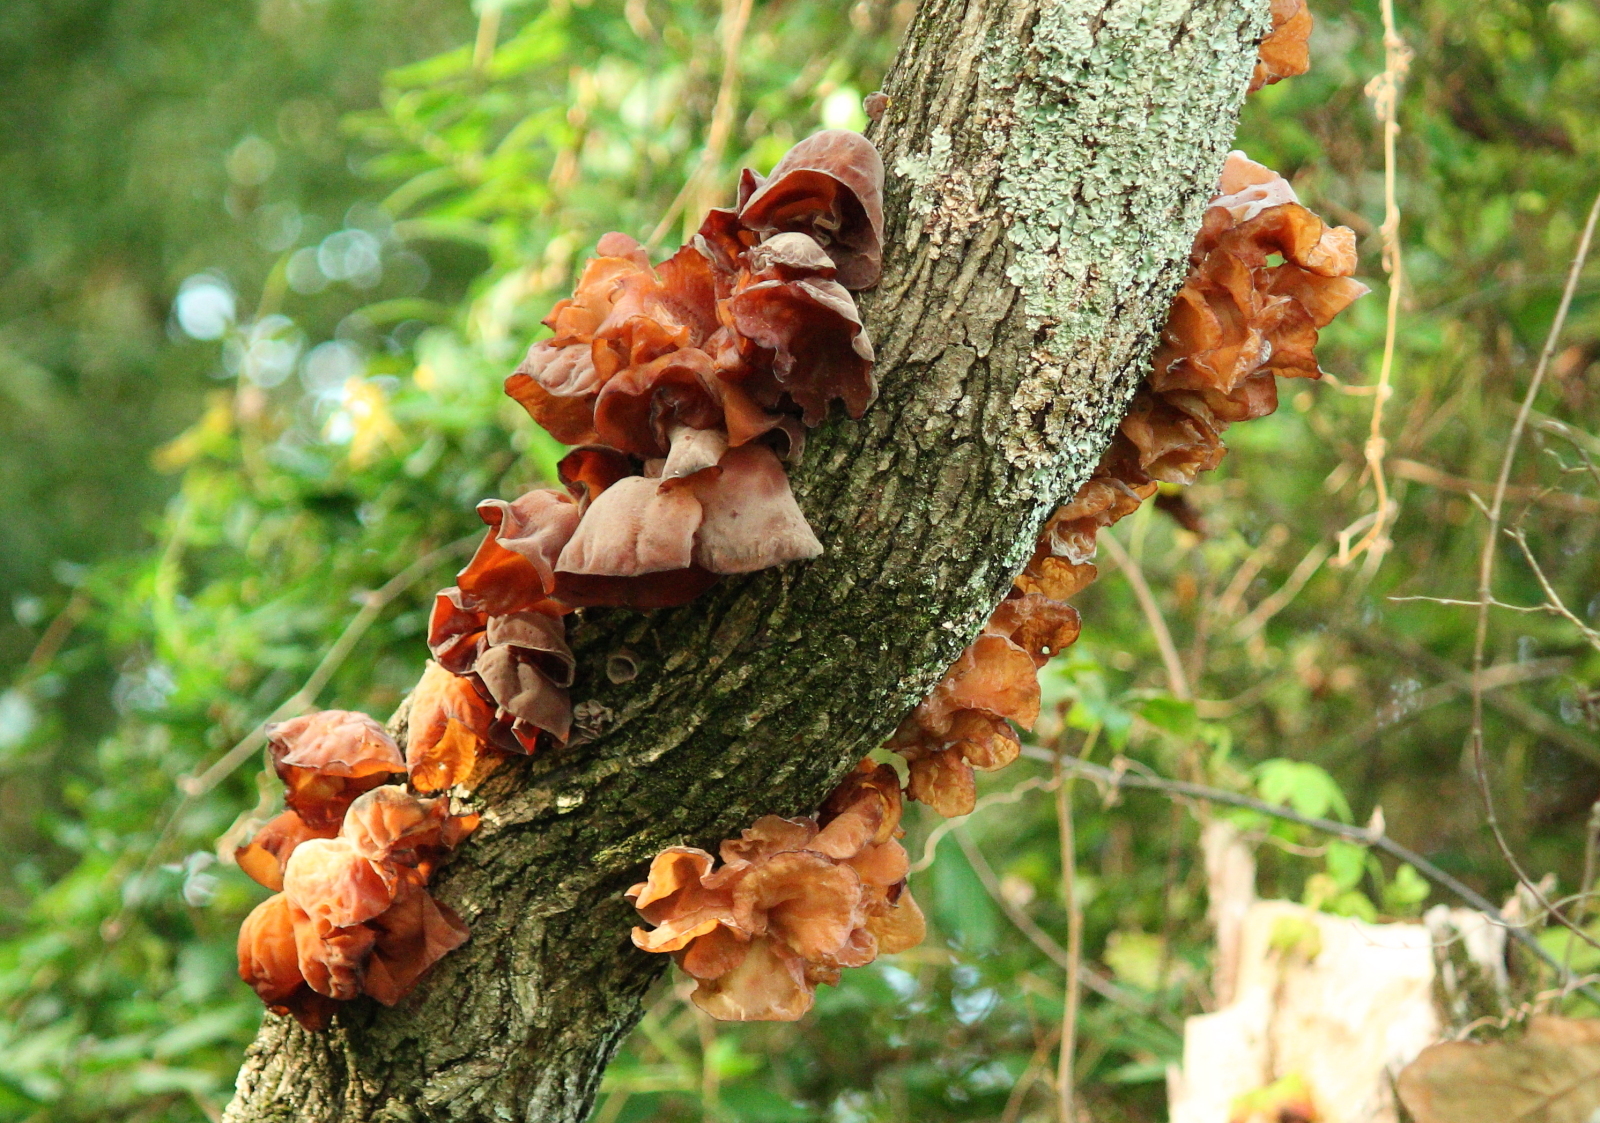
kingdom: Fungi
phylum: Basidiomycota
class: Agaricomycetes
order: Auriculariales
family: Auriculariaceae
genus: Auricularia
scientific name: Auricularia fuscosuccinea
